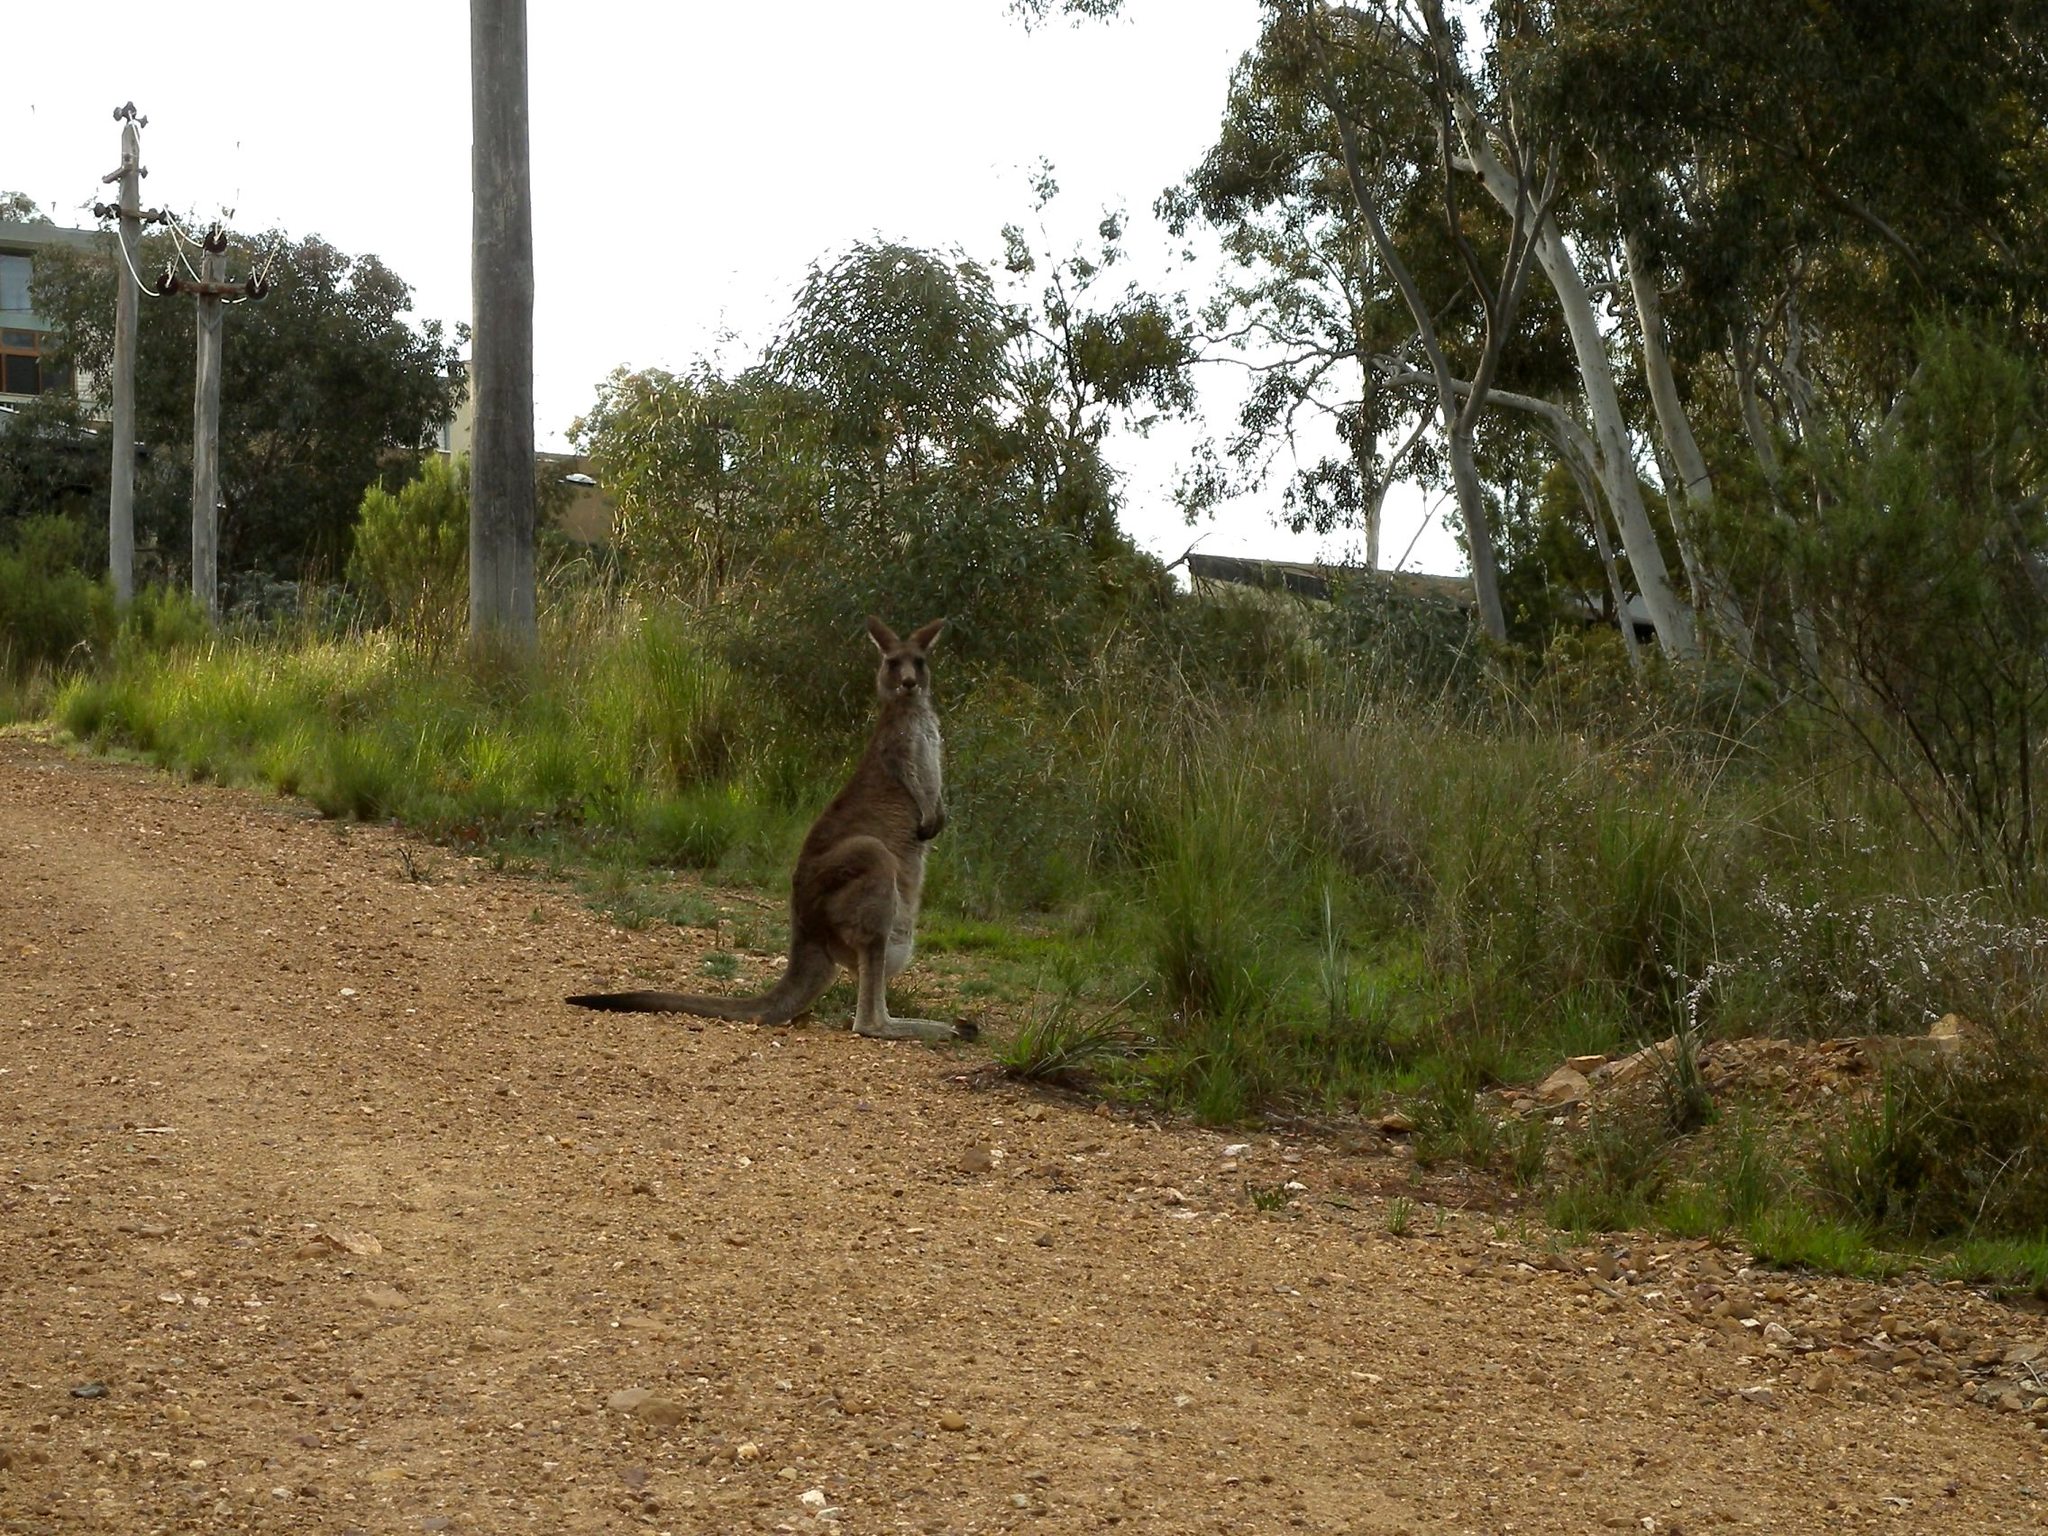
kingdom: Animalia
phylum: Chordata
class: Mammalia
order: Diprotodontia
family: Macropodidae
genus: Macropus
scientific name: Macropus giganteus
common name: Eastern grey kangaroo
